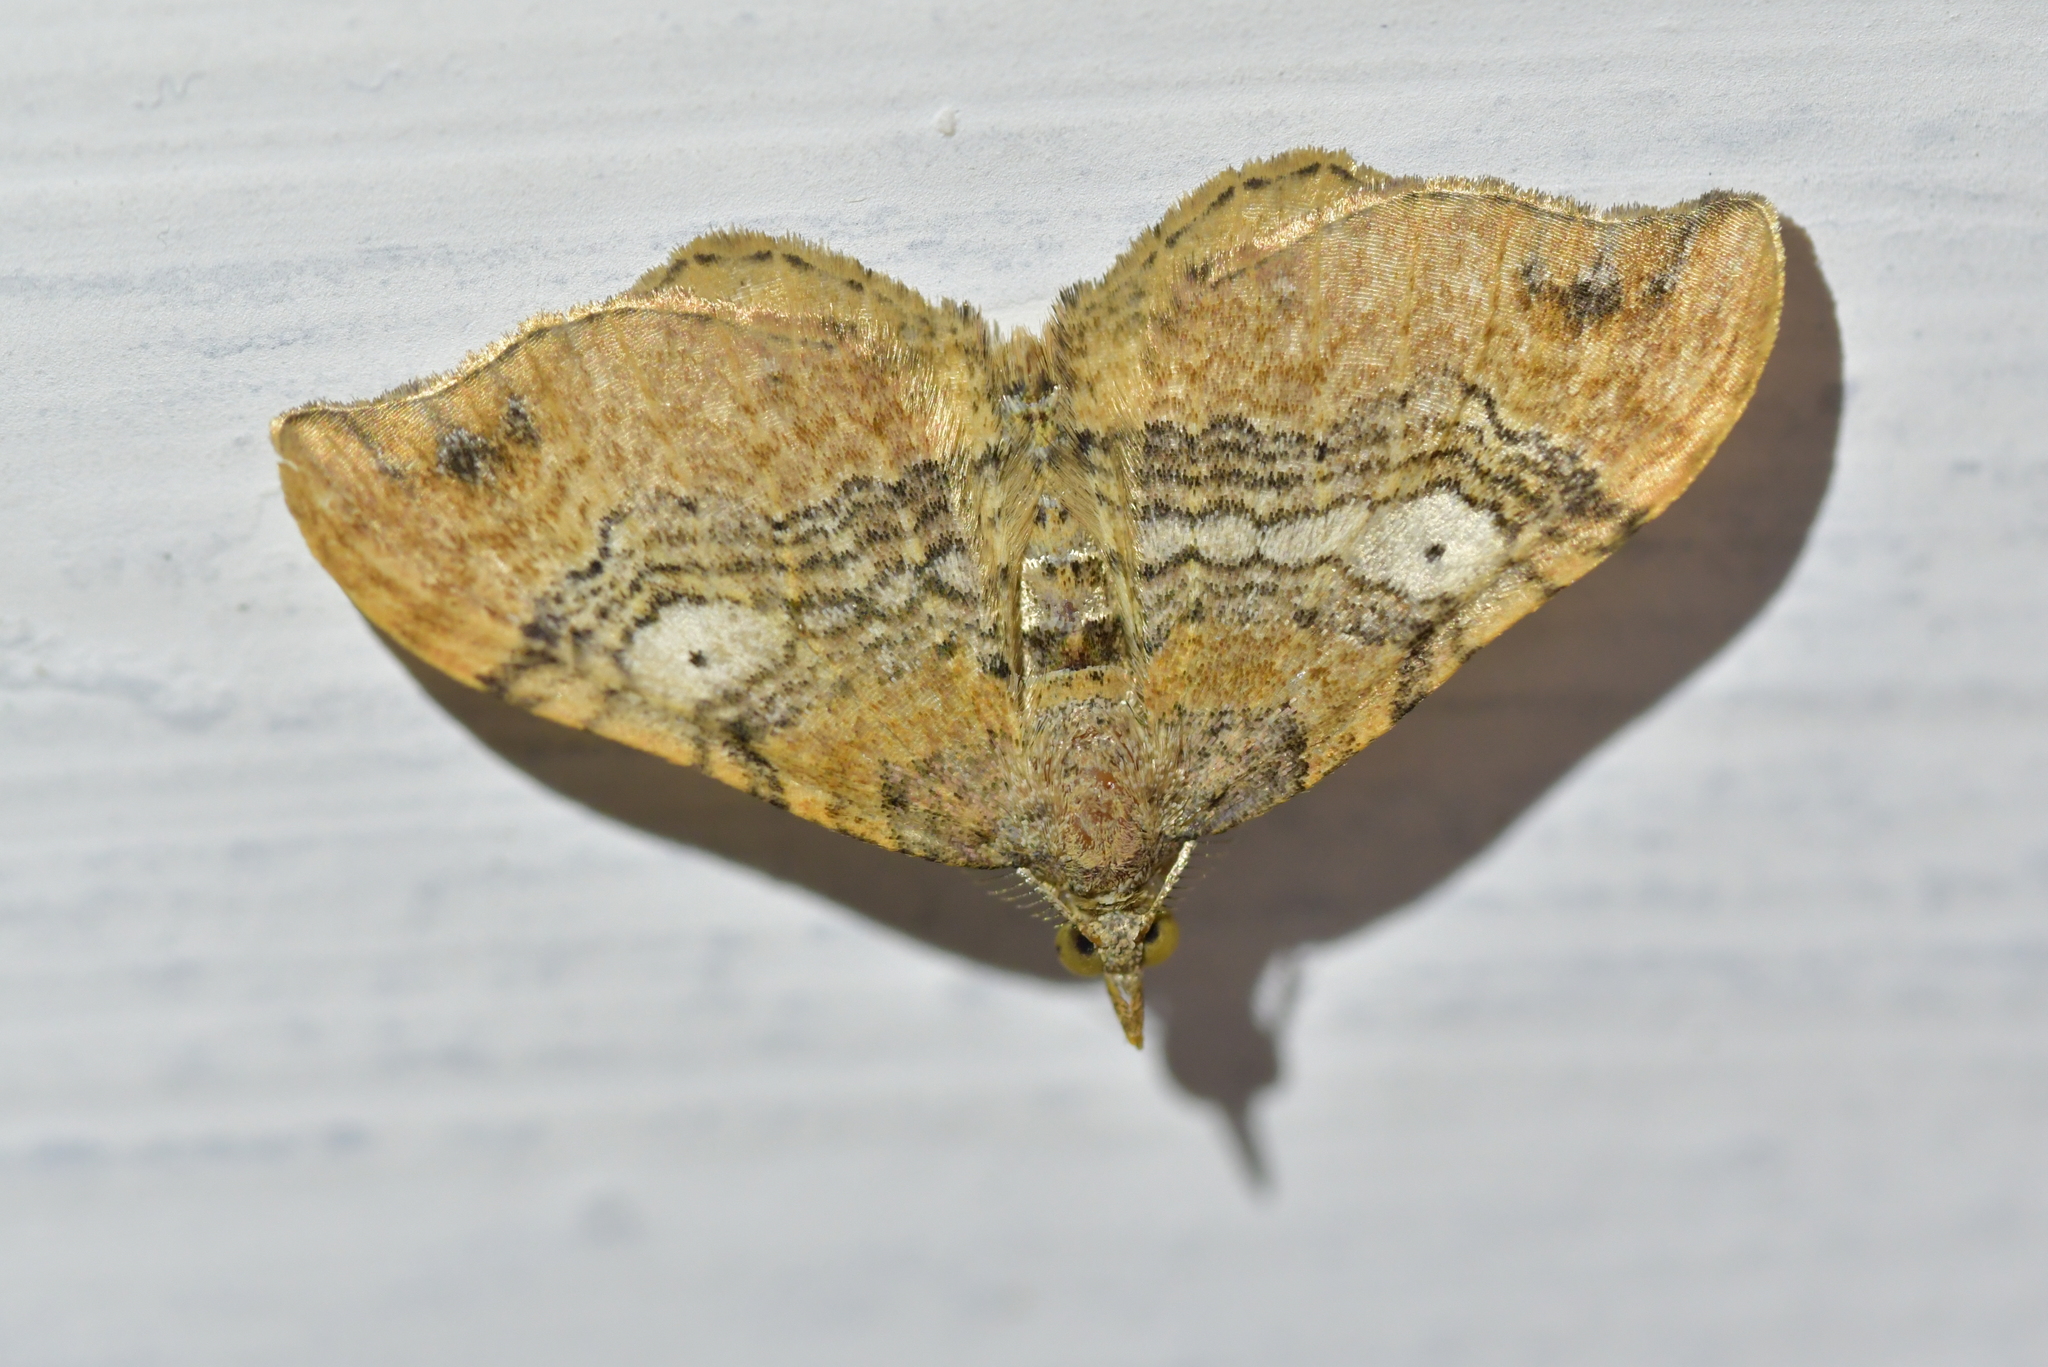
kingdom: Animalia
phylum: Arthropoda
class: Insecta
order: Lepidoptera
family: Geometridae
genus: Homodotis
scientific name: Homodotis megaspilata
